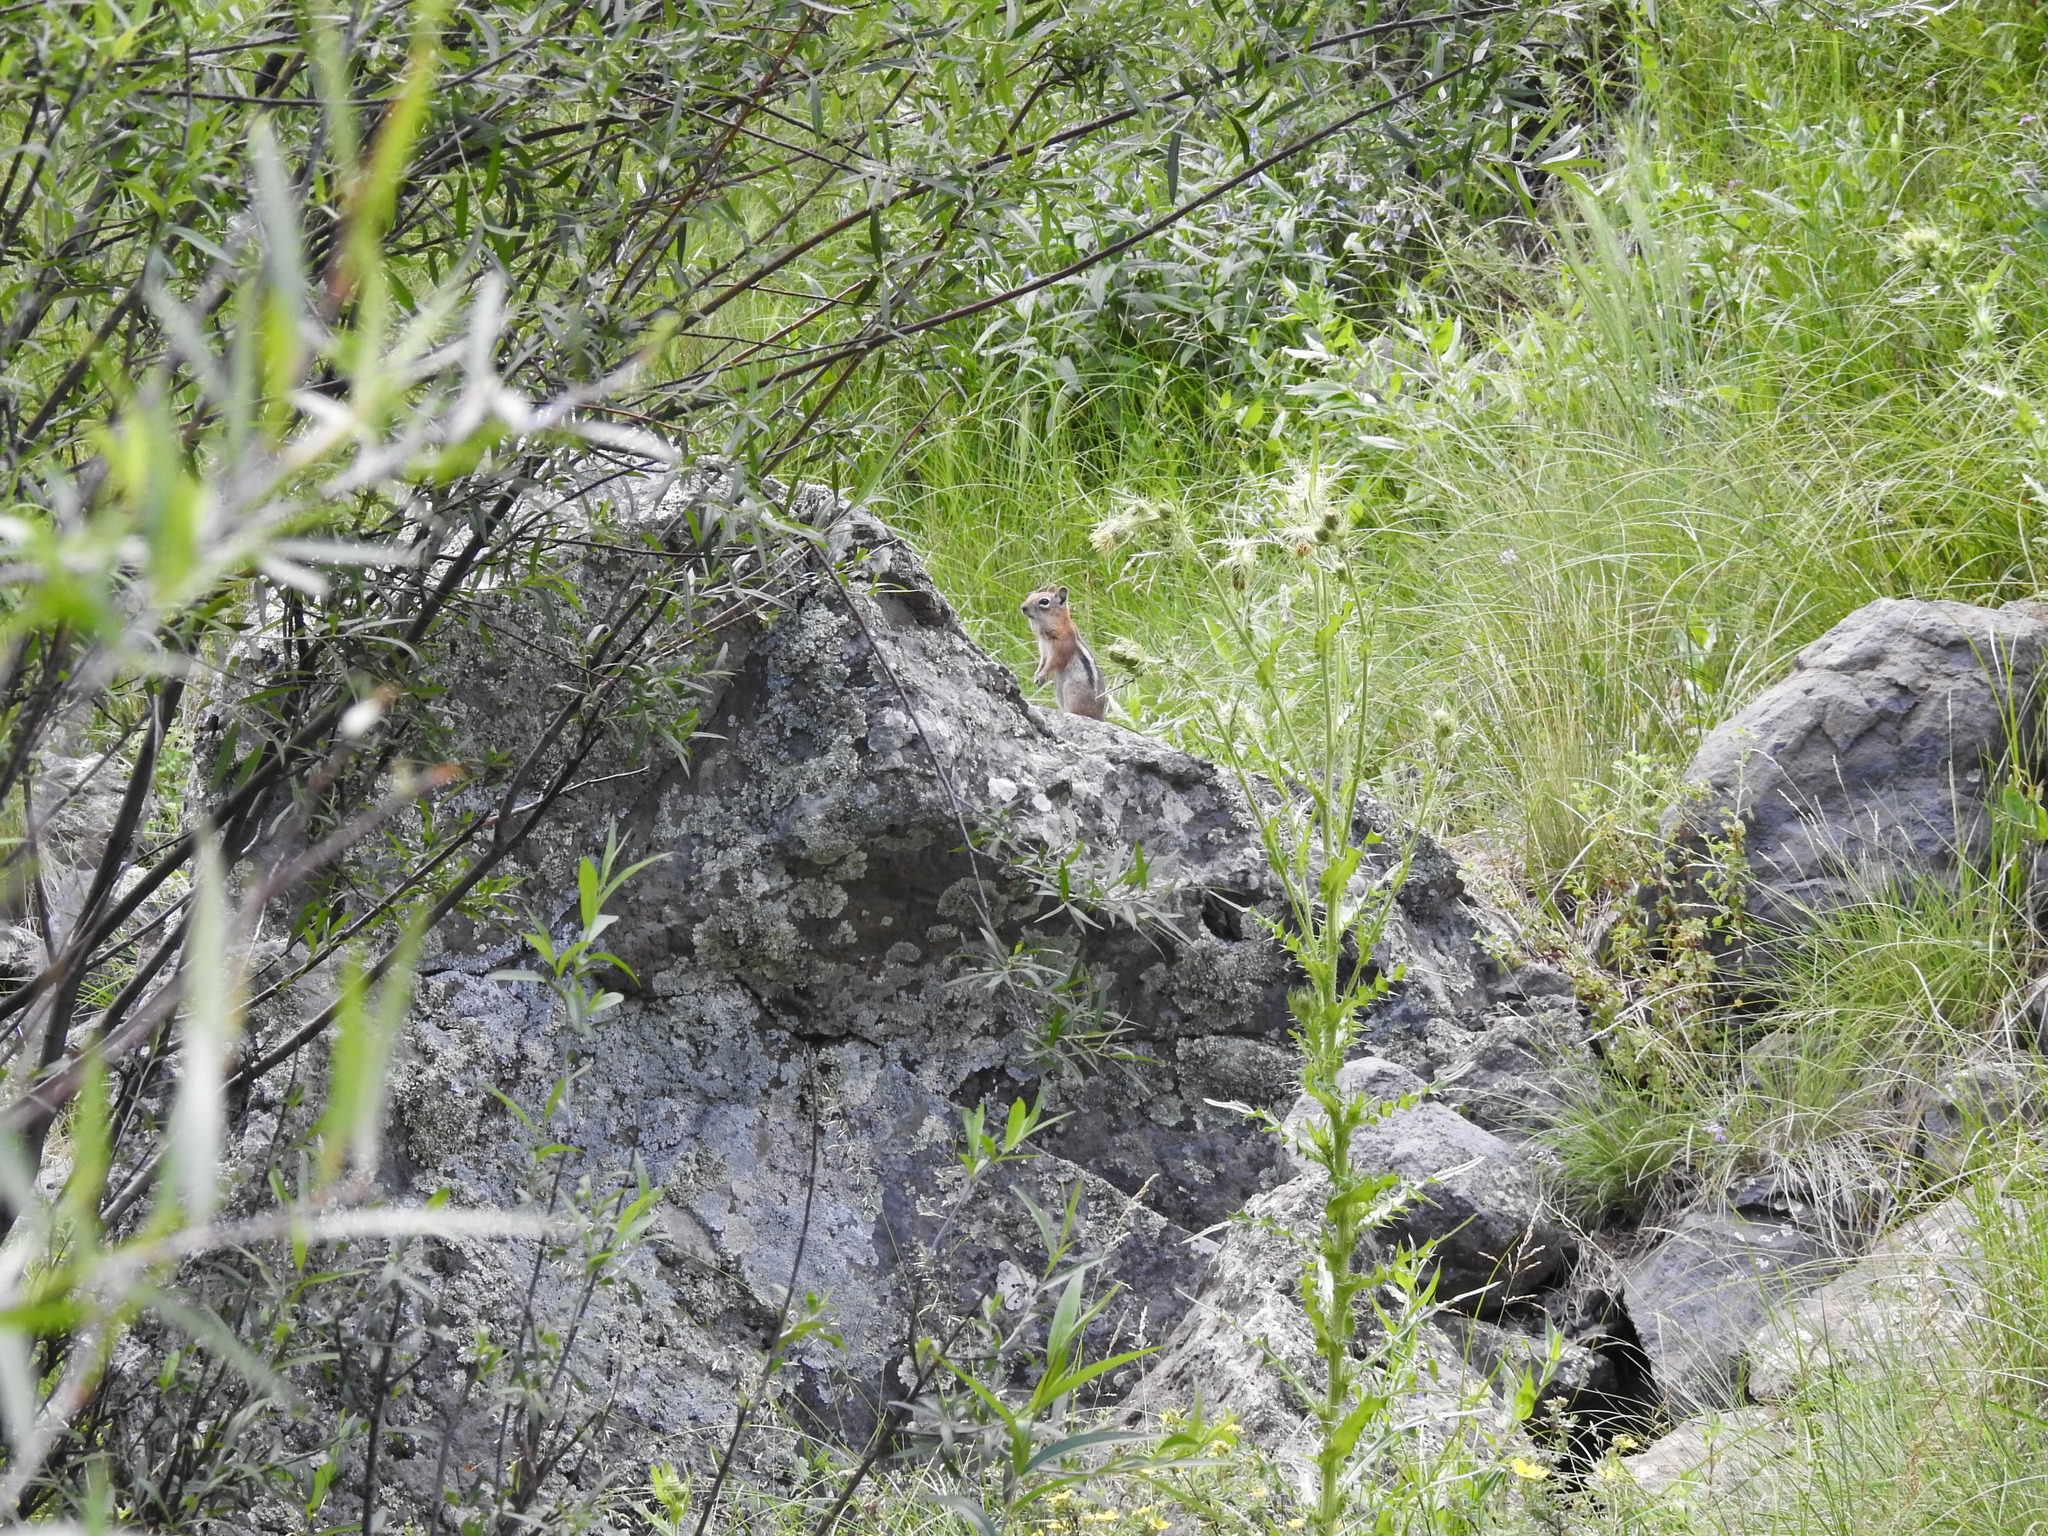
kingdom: Animalia
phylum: Chordata
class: Mammalia
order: Rodentia
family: Sciuridae
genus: Callospermophilus
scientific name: Callospermophilus lateralis
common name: Golden-mantled ground squirrel
